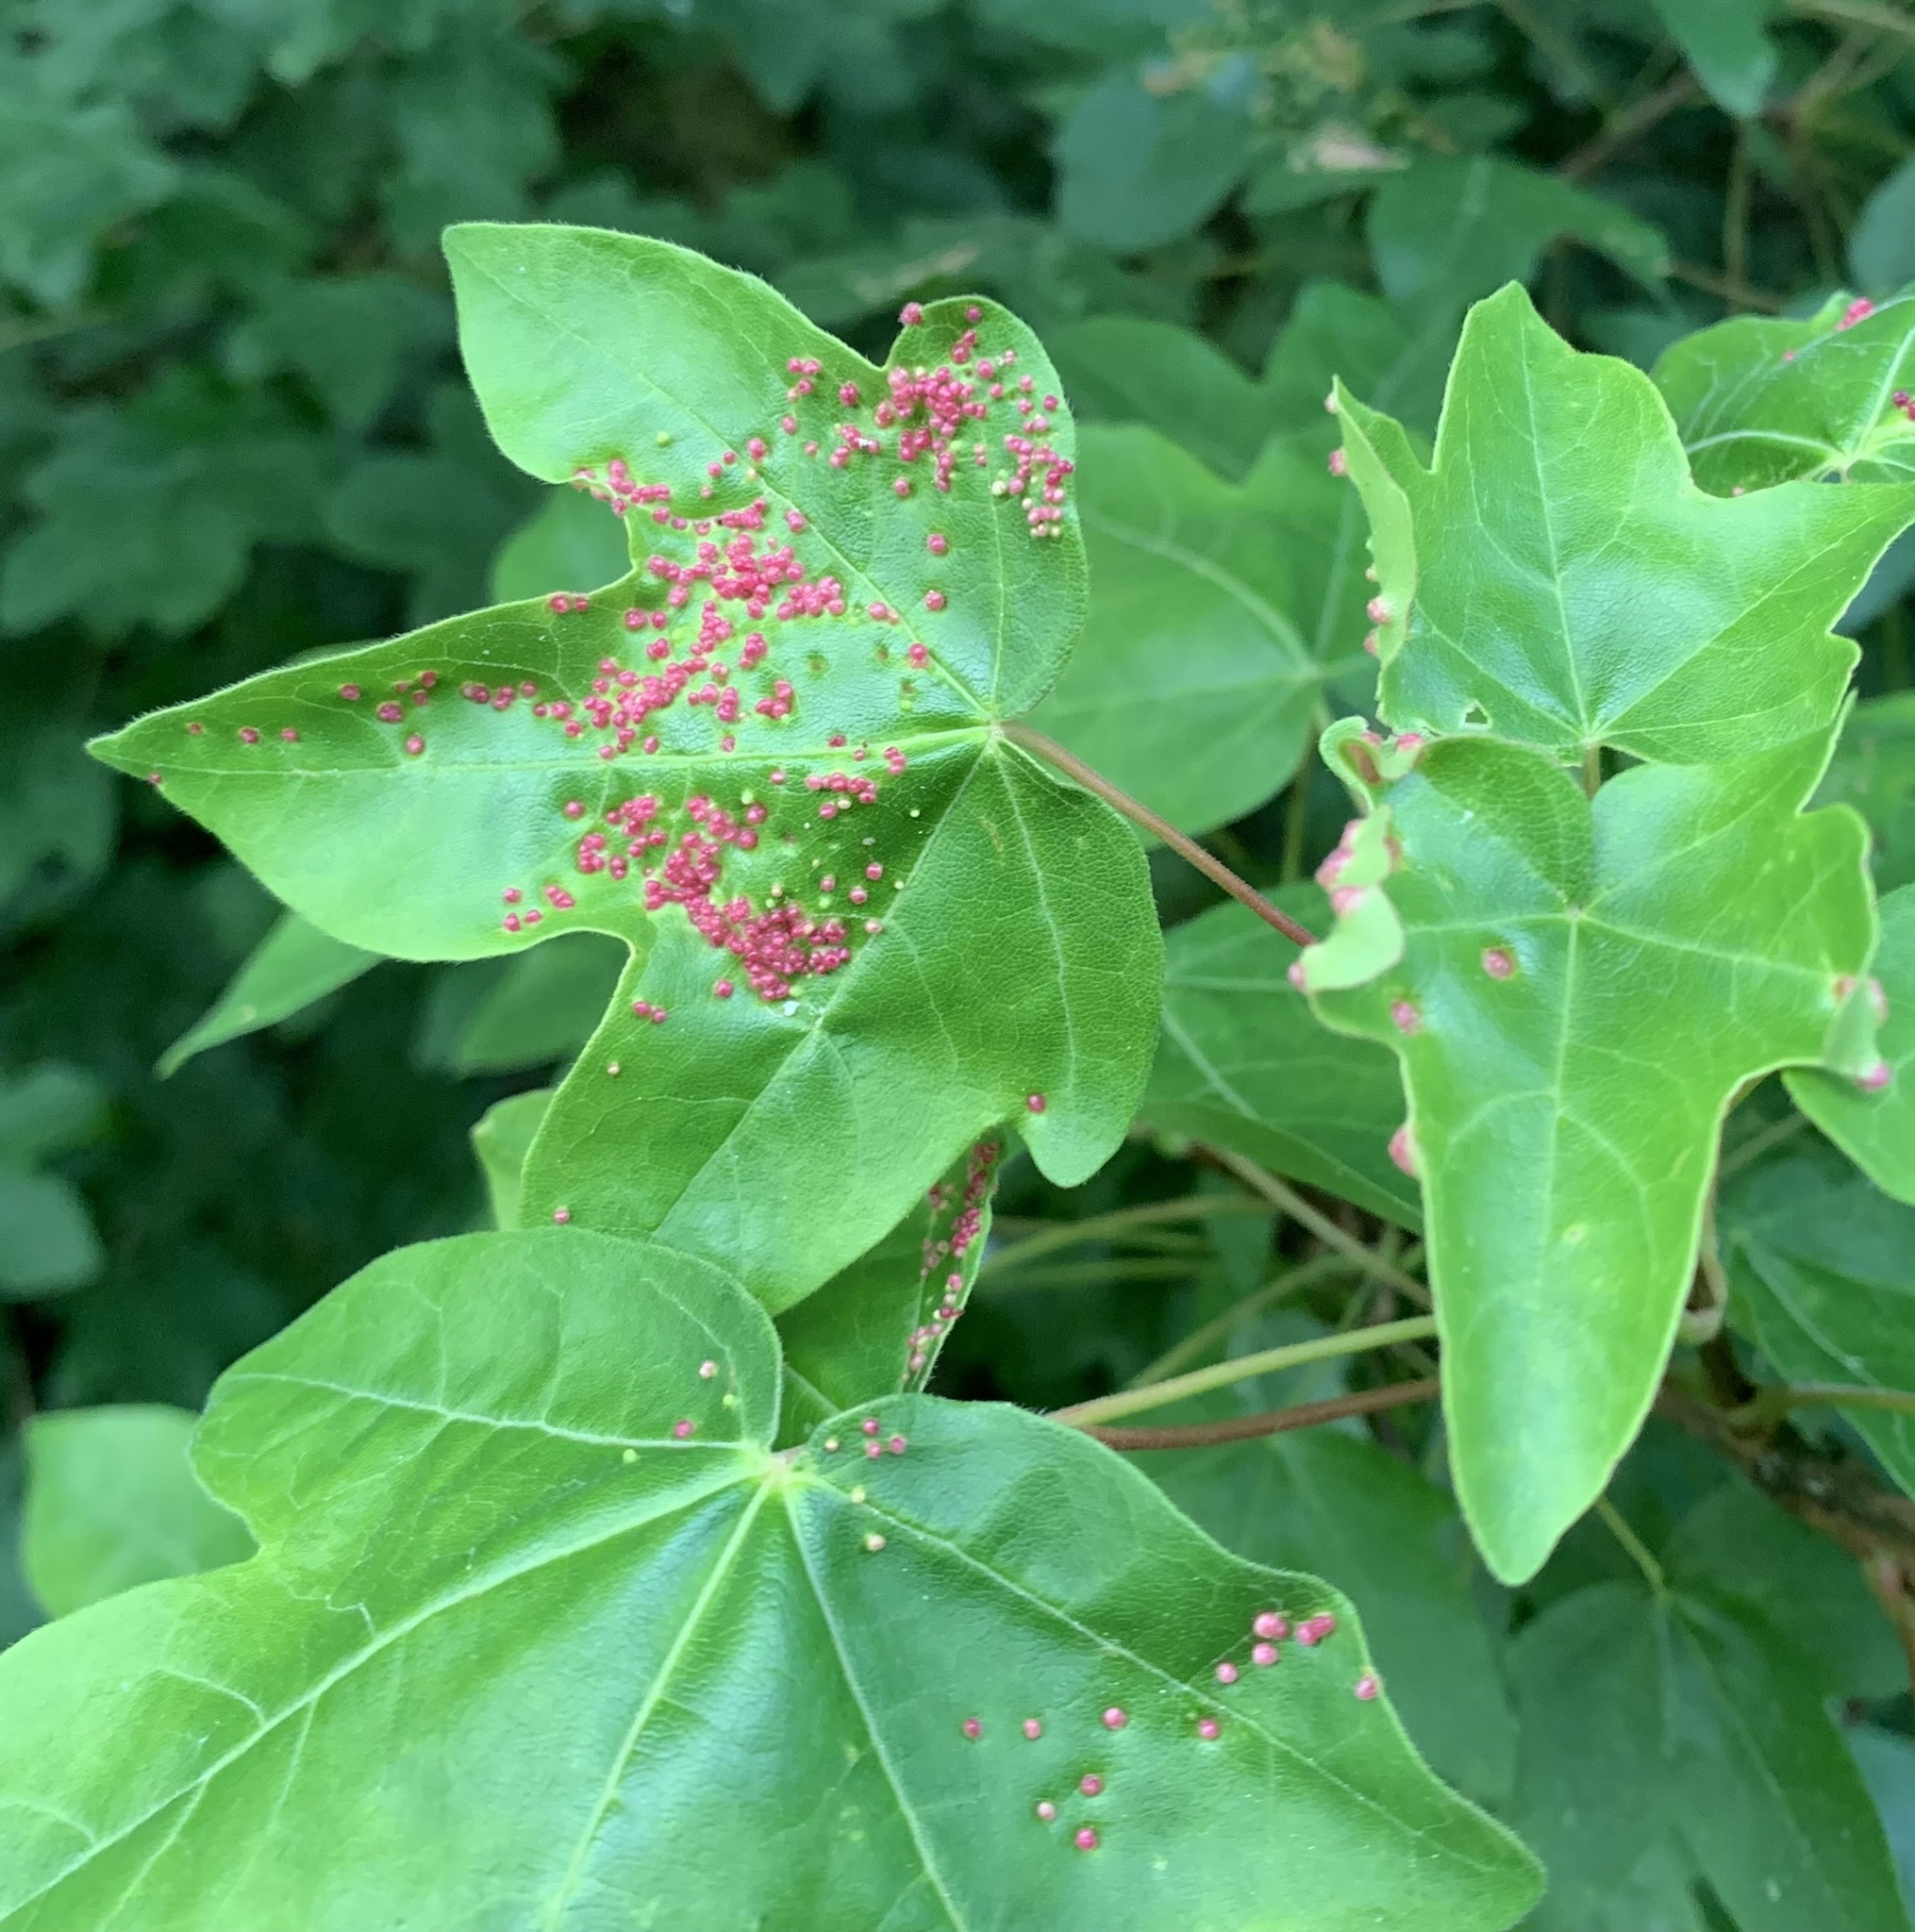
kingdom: Animalia
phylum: Arthropoda
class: Arachnida
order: Trombidiformes
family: Eriophyidae
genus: Aceria
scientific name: Aceria myriadeum
